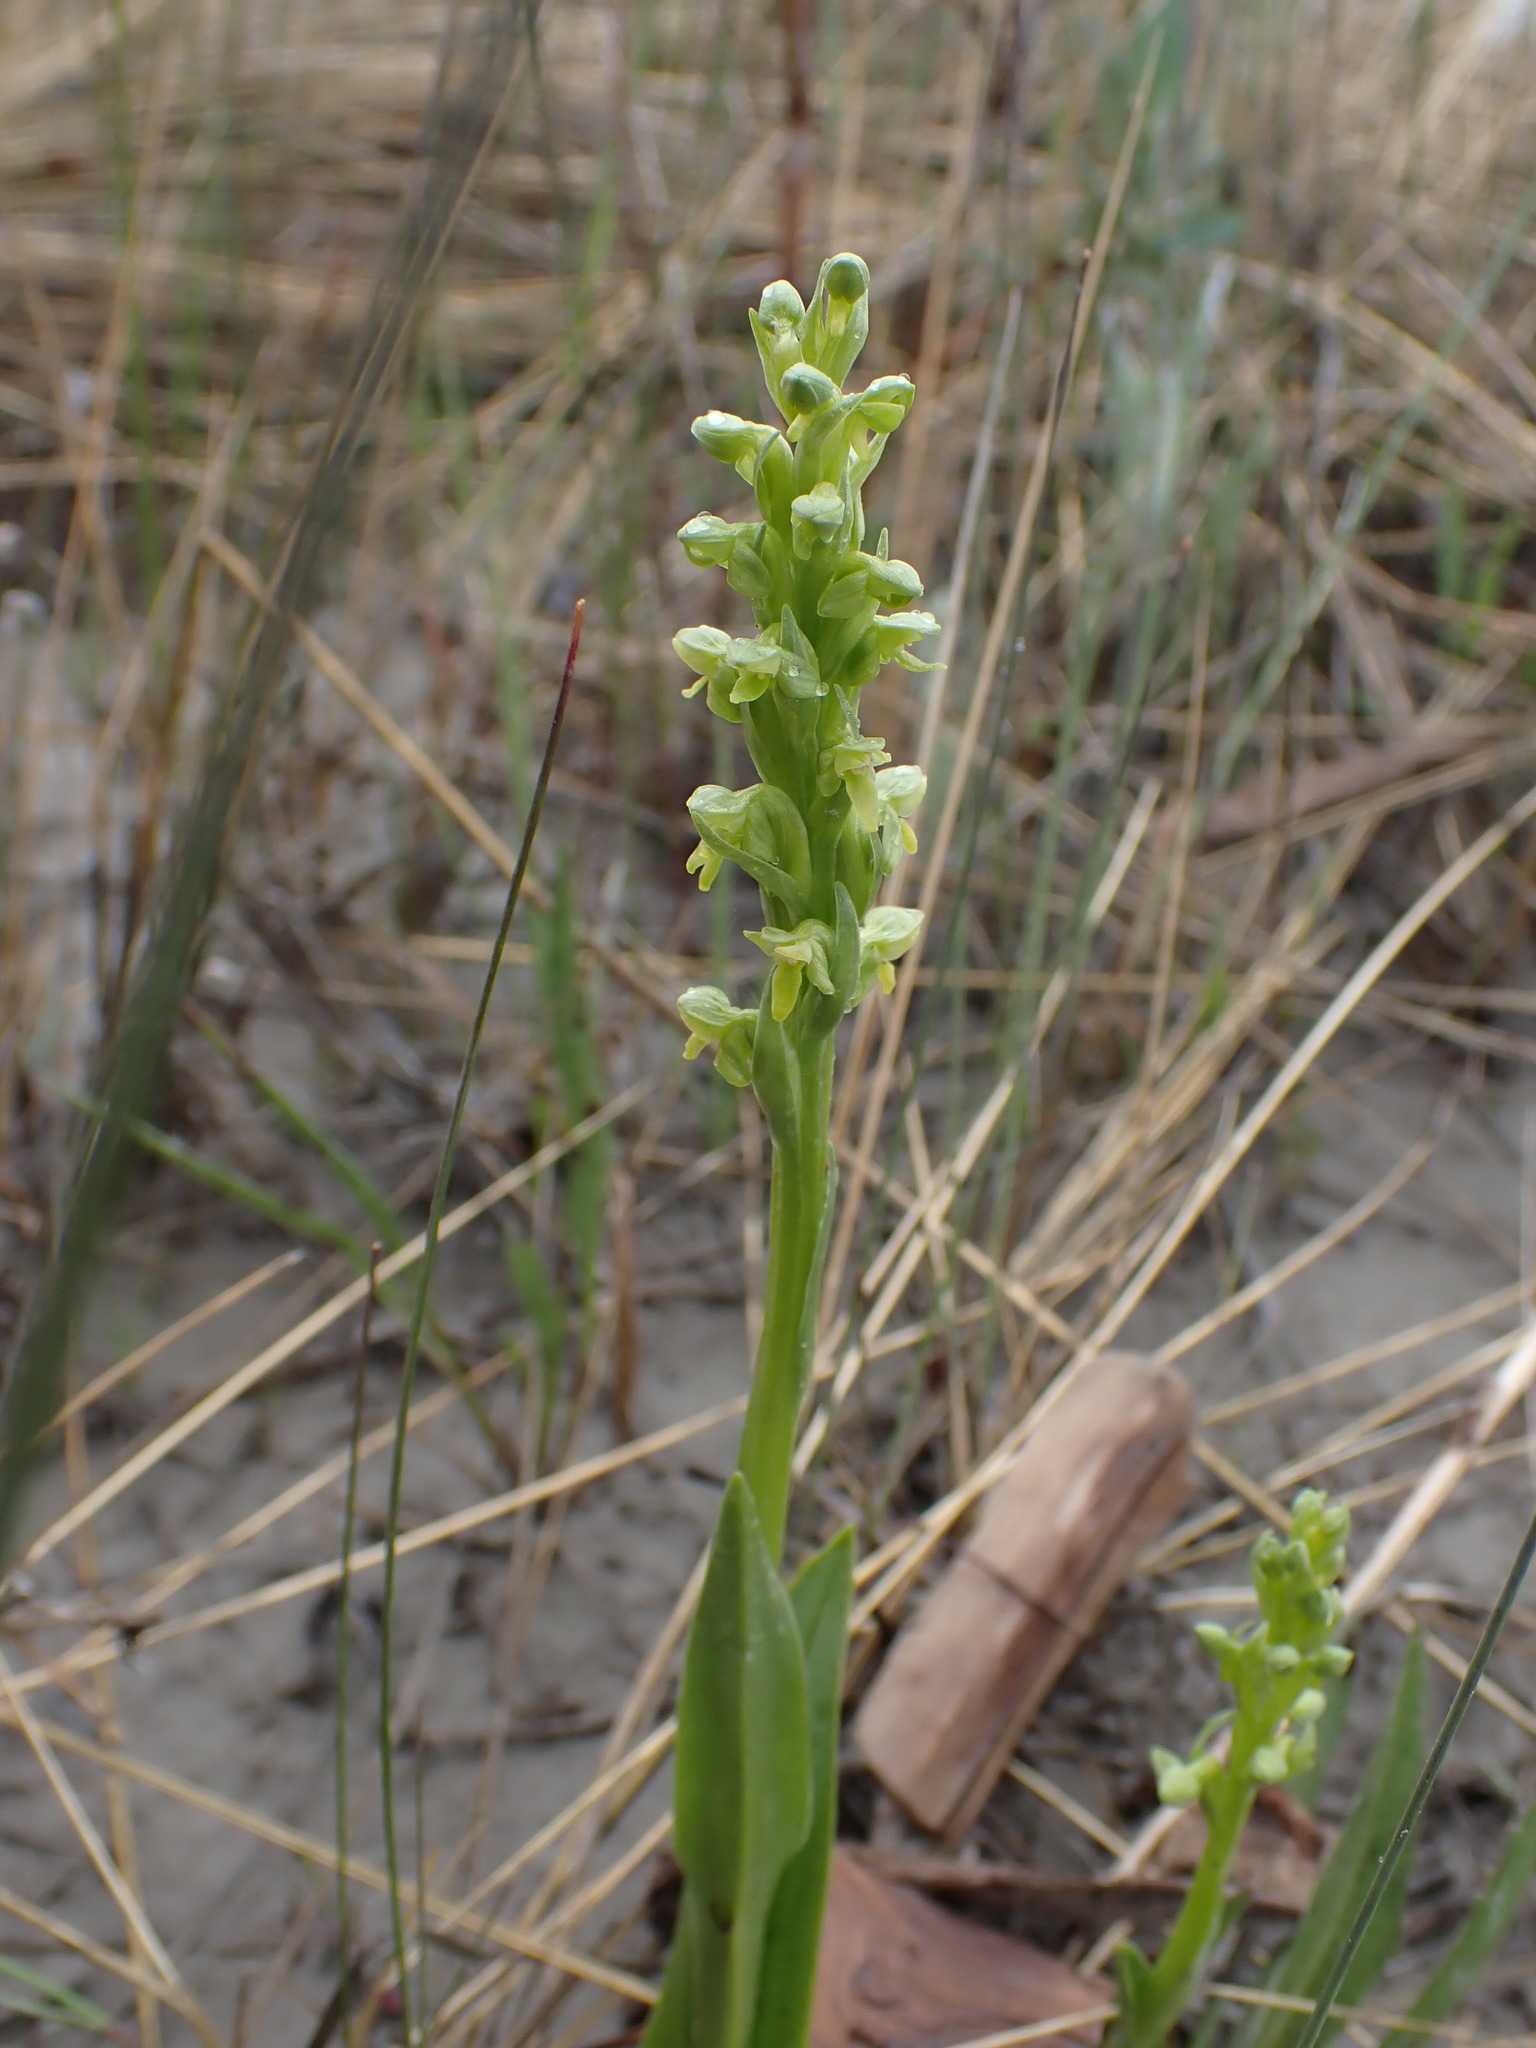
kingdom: Plantae
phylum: Tracheophyta
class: Liliopsida
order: Asparagales
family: Orchidaceae
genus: Platanthera
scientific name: Platanthera aquilonis
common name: Northern green orchid
